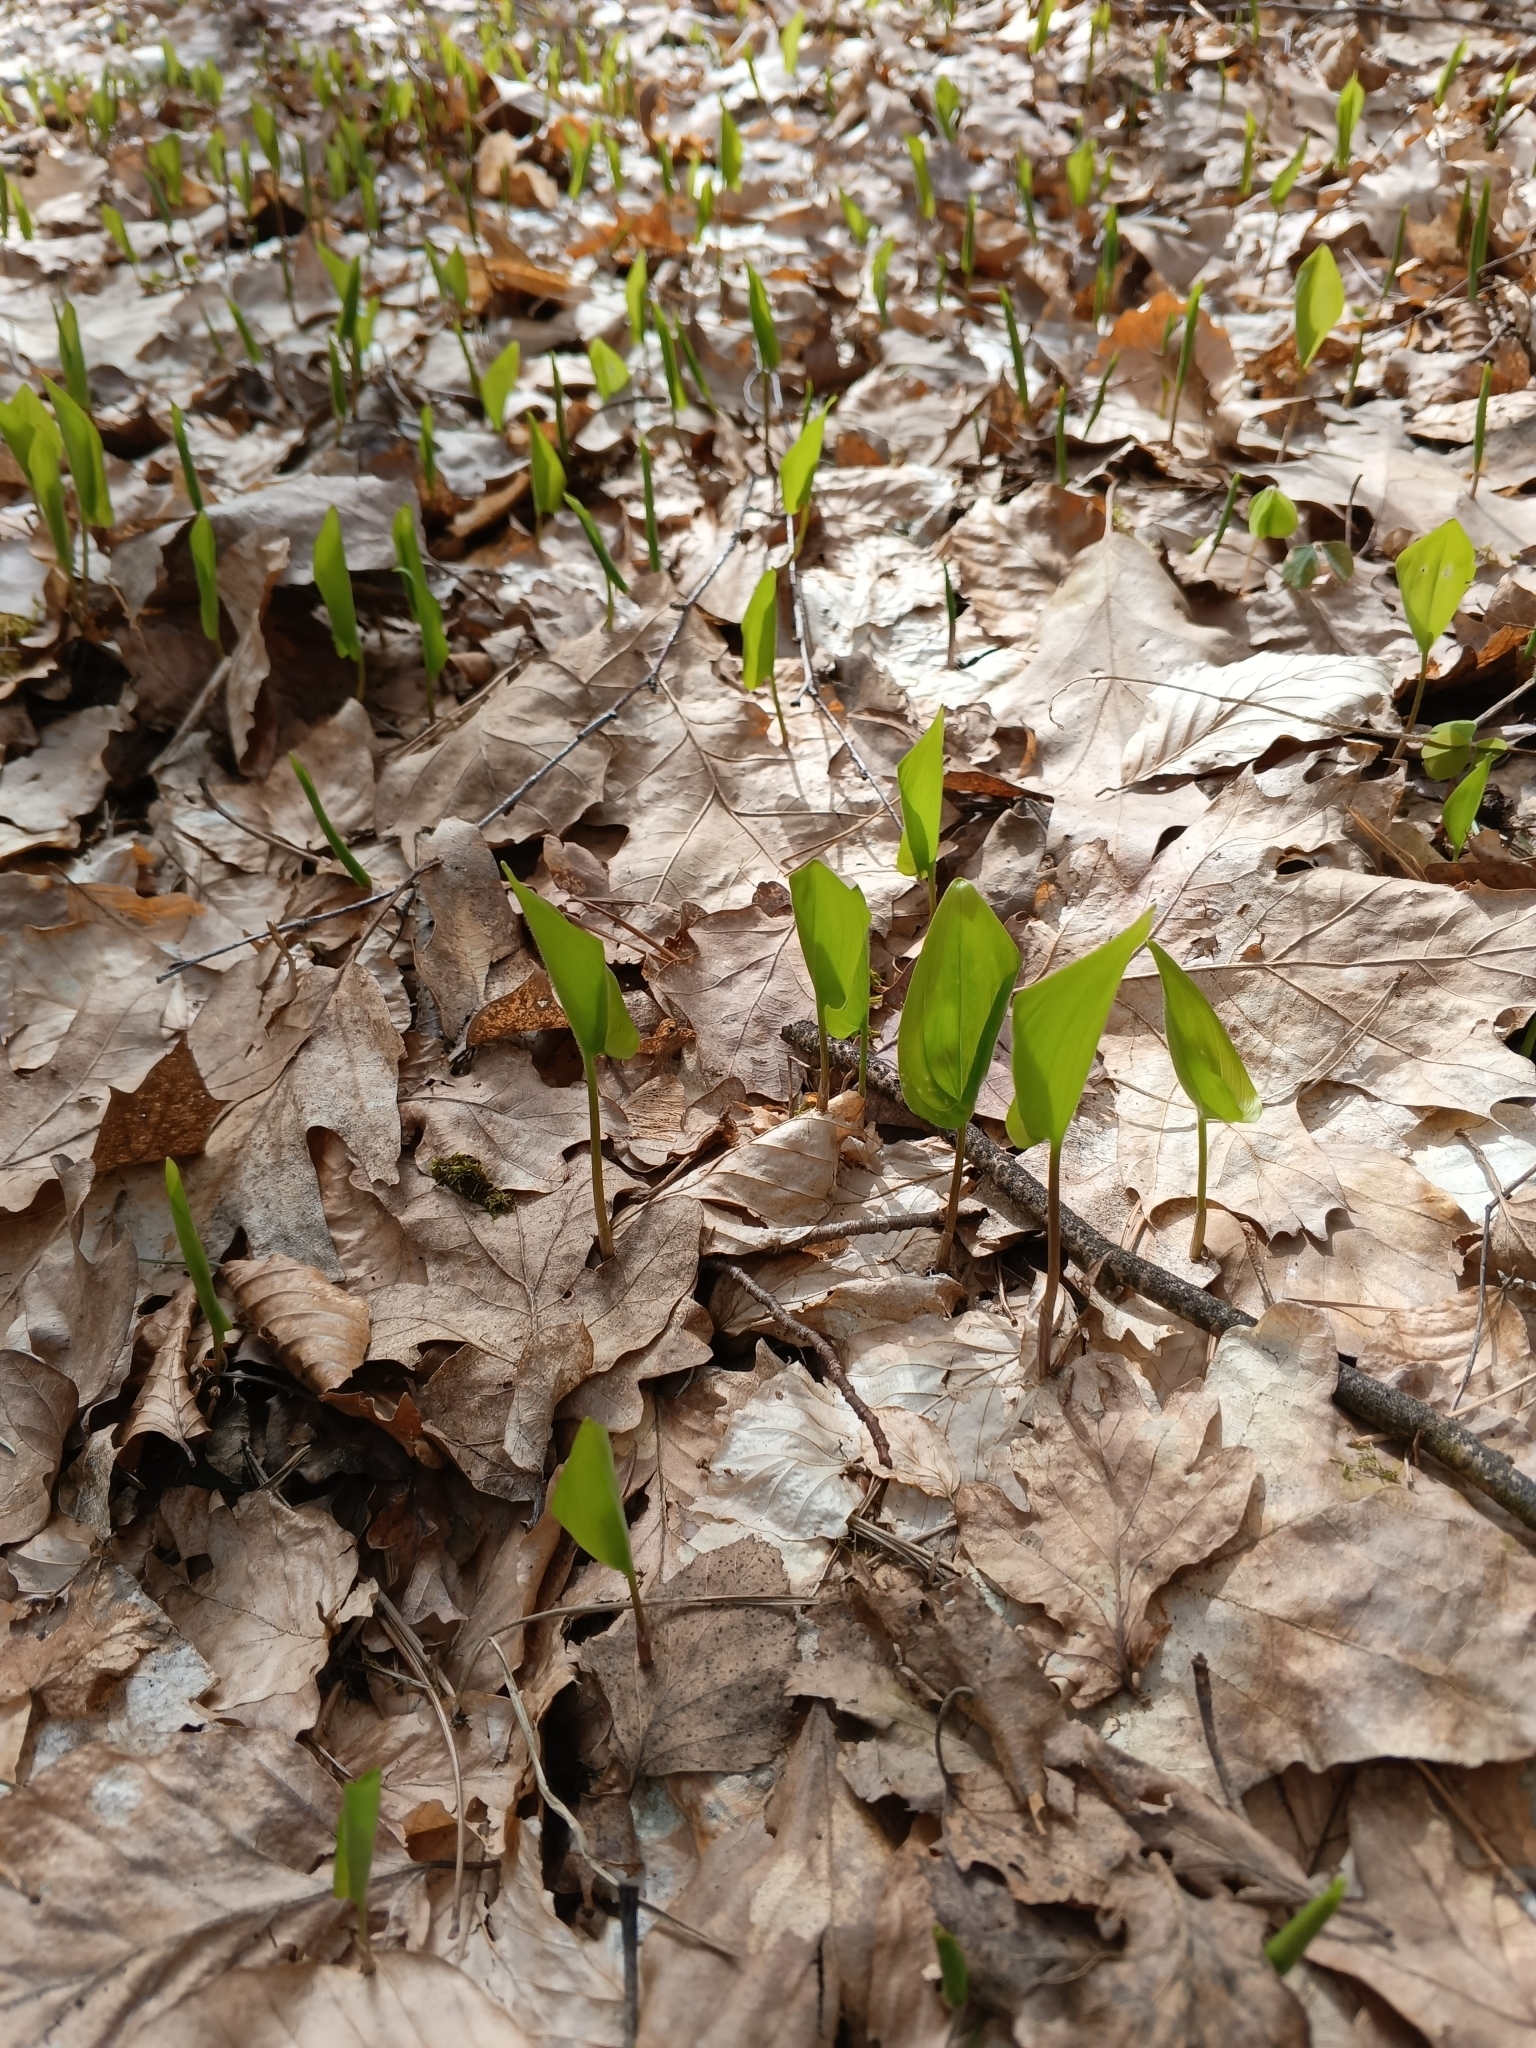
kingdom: Plantae
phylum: Tracheophyta
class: Liliopsida
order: Asparagales
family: Asparagaceae
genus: Maianthemum
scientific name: Maianthemum bifolium
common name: May lily
